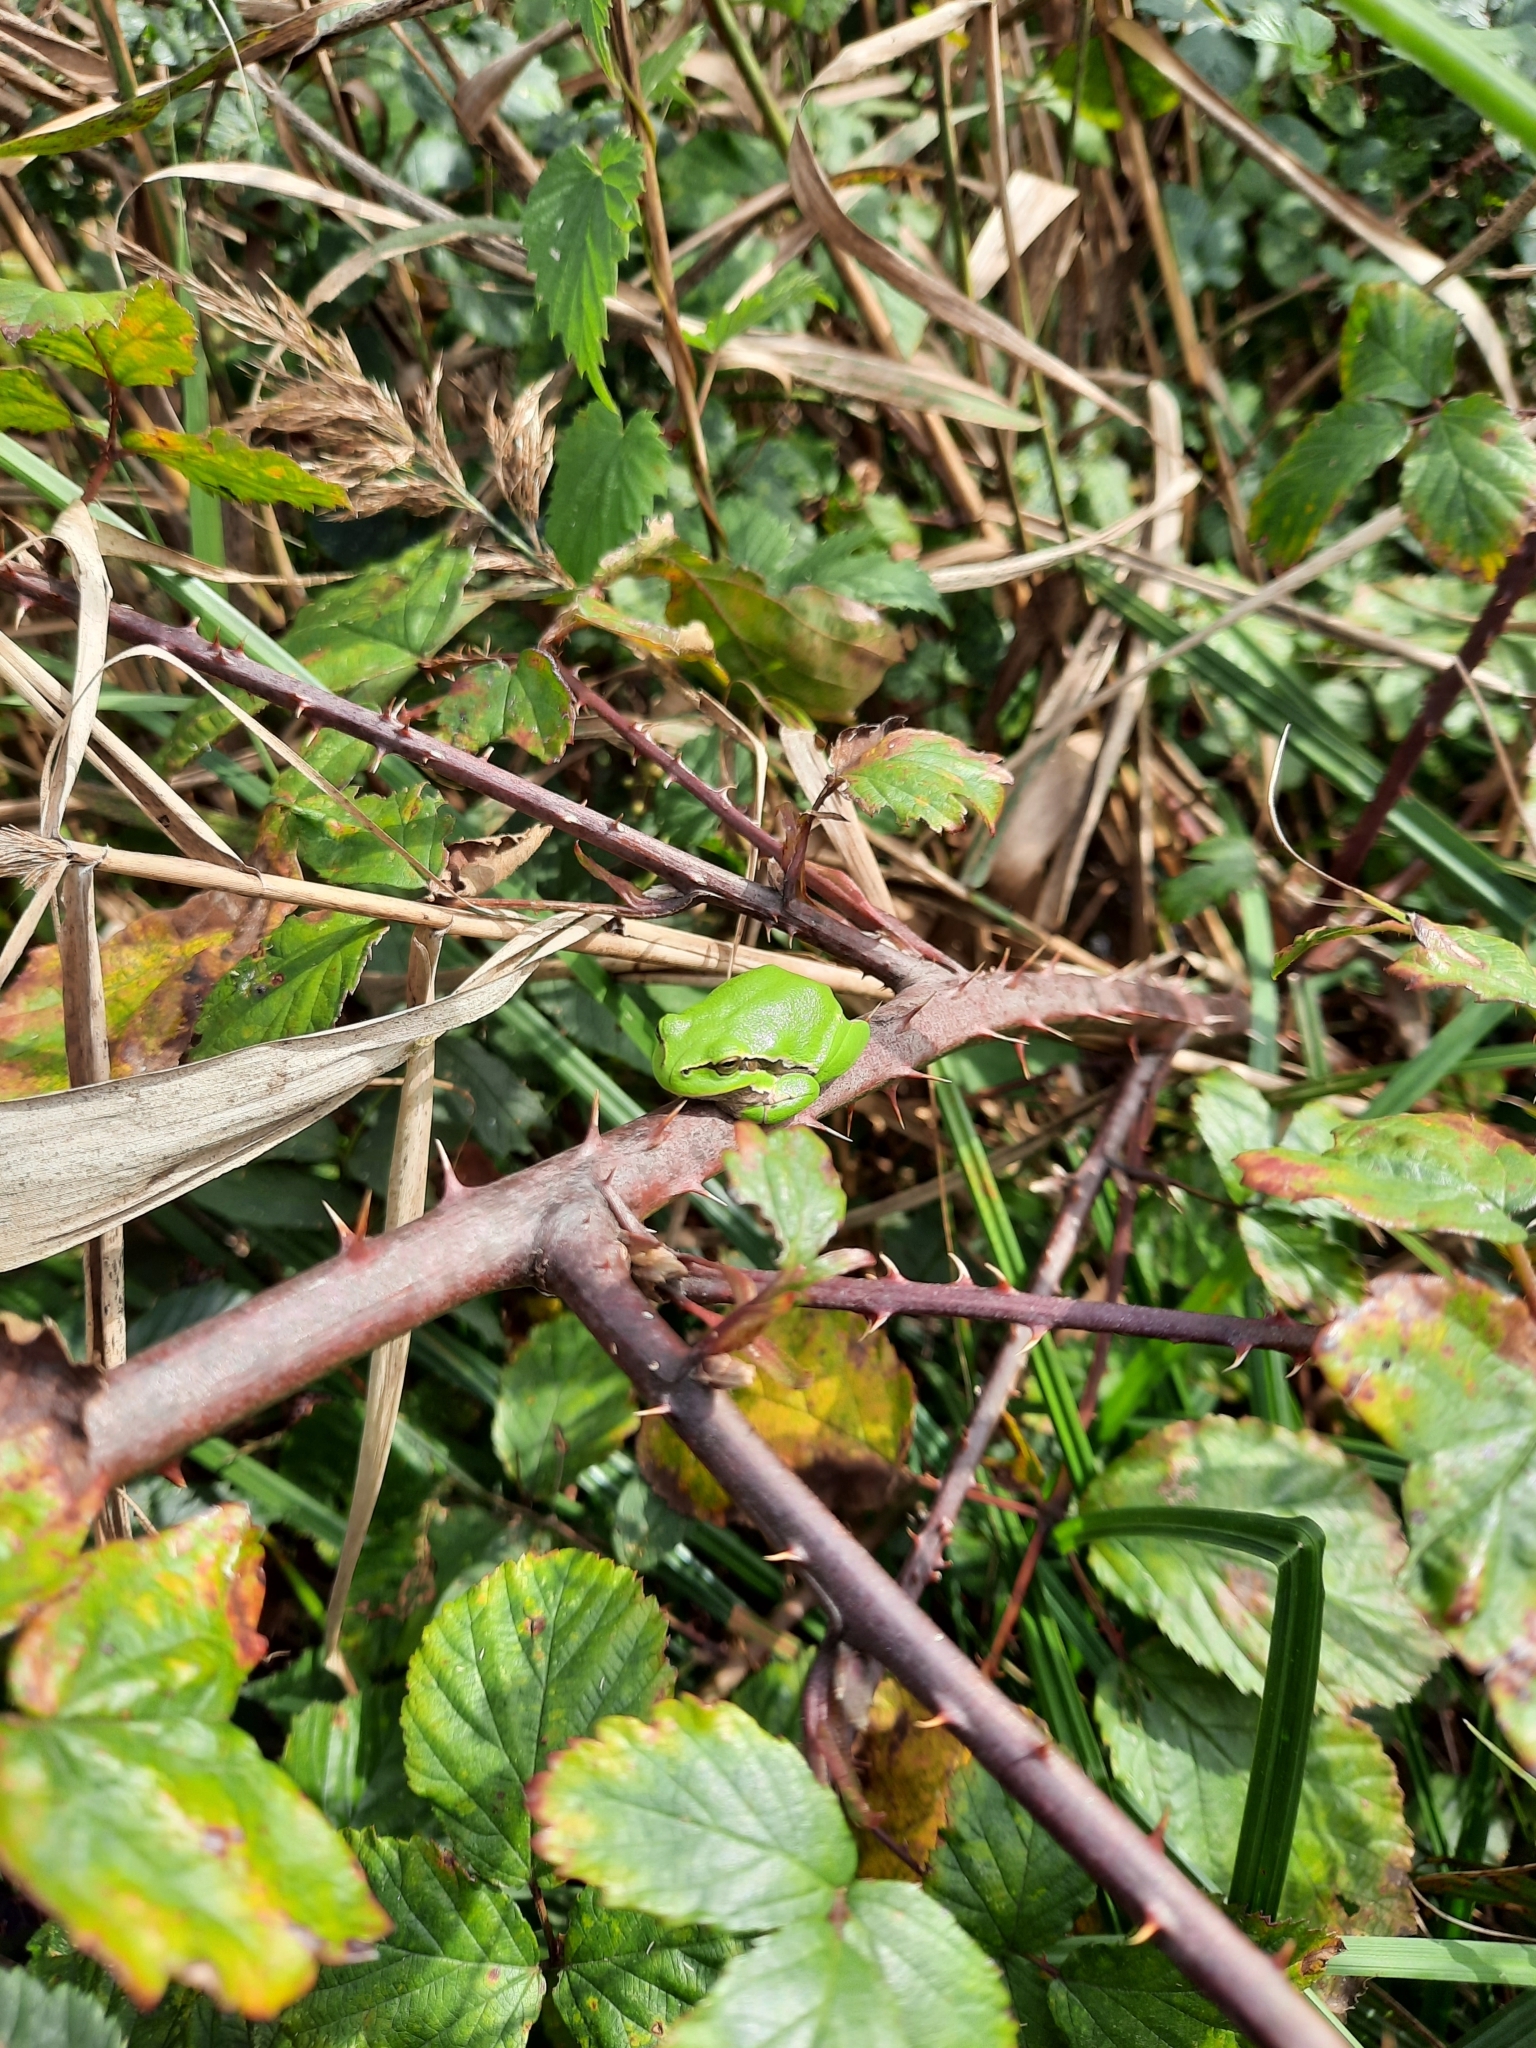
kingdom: Animalia
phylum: Chordata
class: Amphibia
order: Anura
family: Hylidae
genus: Hyla
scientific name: Hyla arborea
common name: Common tree frog
